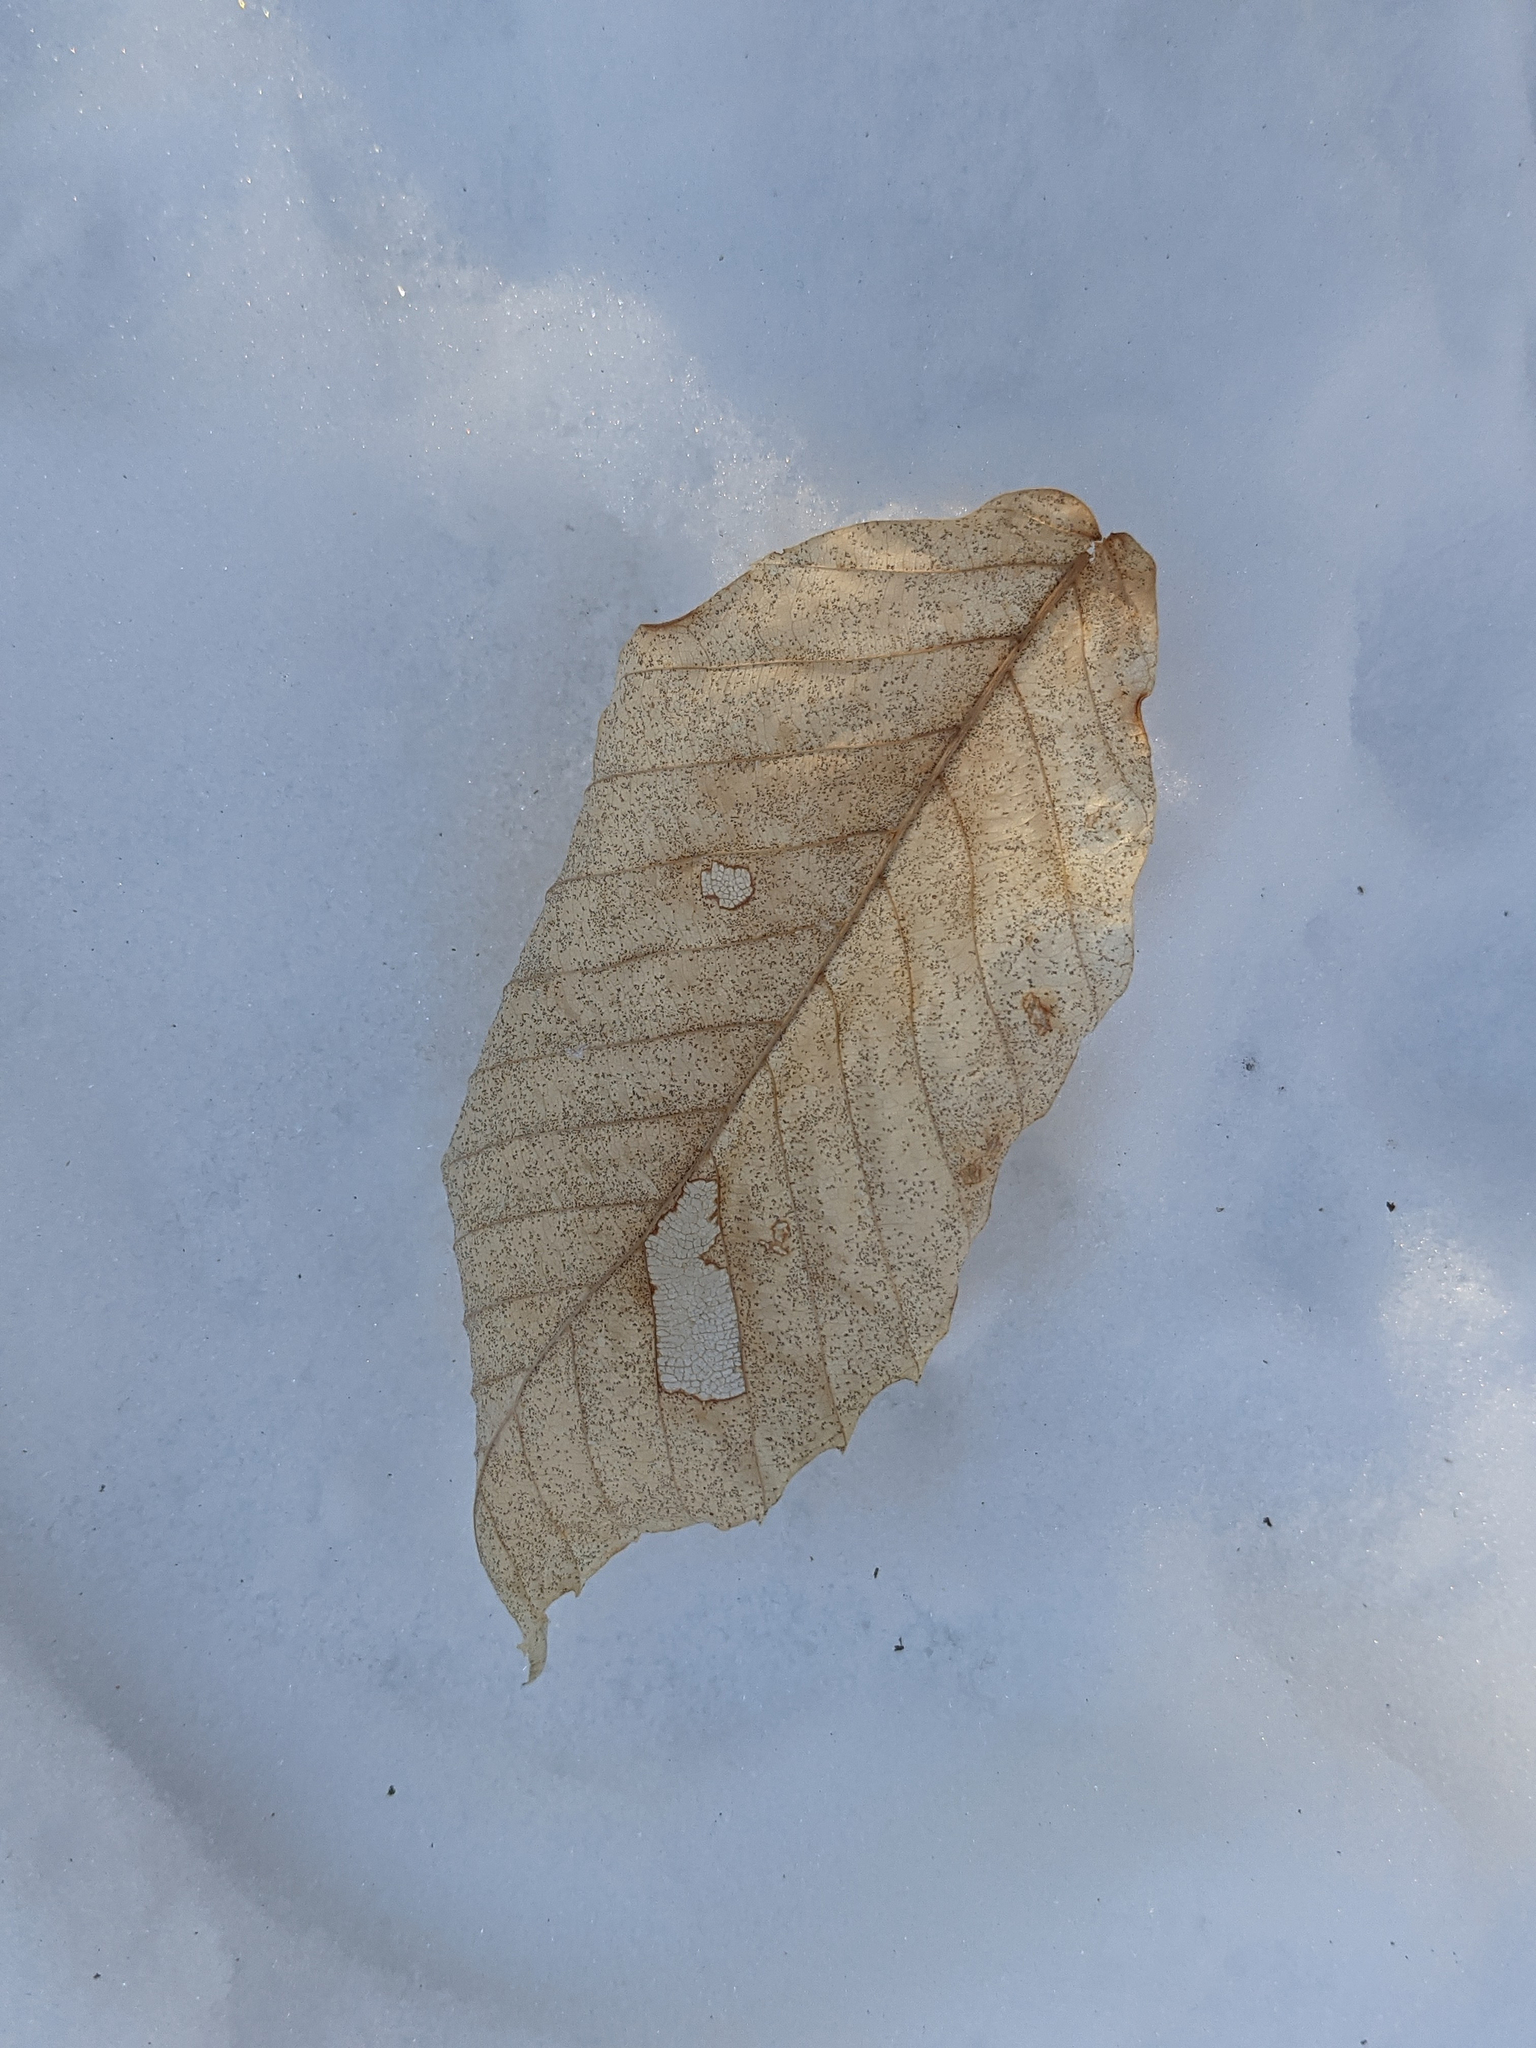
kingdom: Plantae
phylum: Tracheophyta
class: Magnoliopsida
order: Fagales
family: Fagaceae
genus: Fagus
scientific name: Fagus grandifolia
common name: American beech
